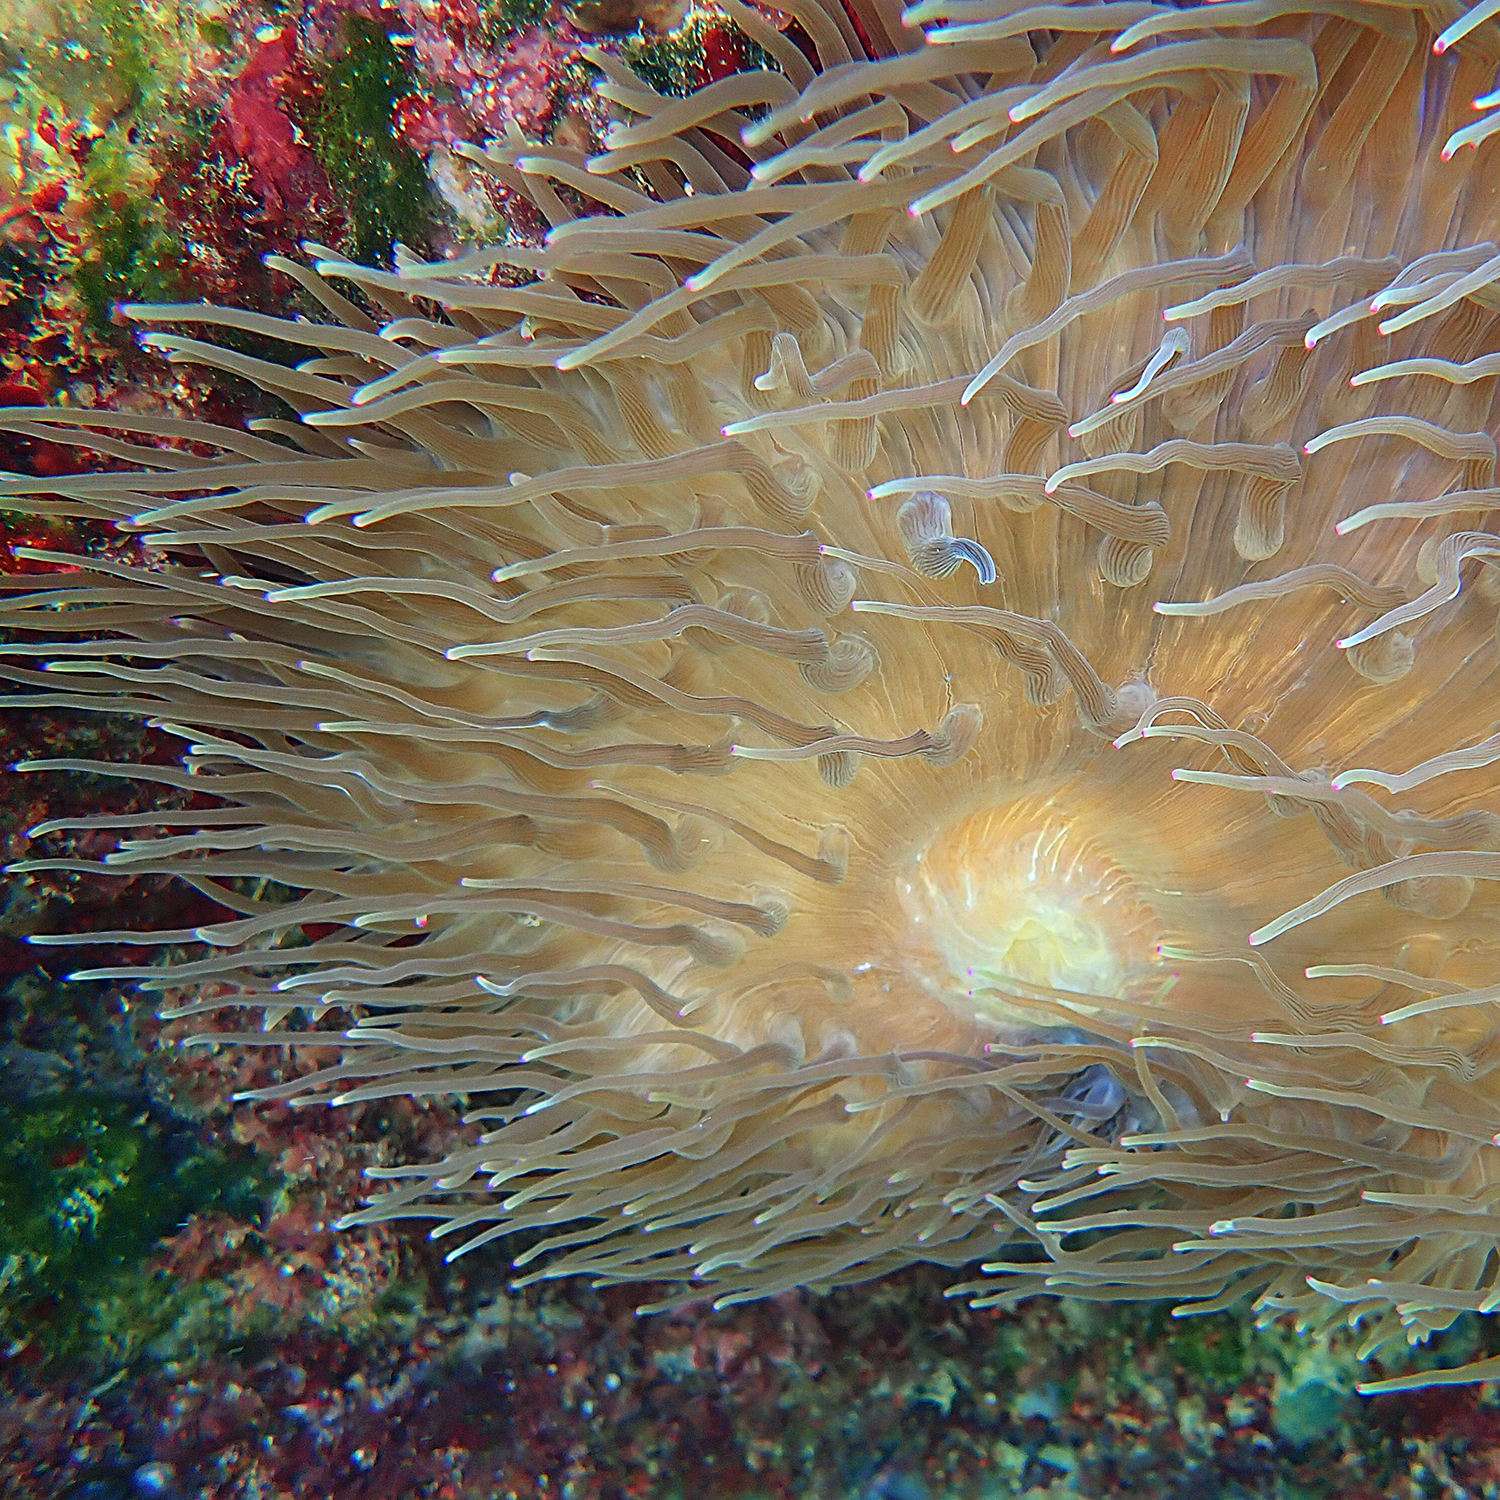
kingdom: Animalia
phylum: Cnidaria
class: Anthozoa
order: Actiniaria
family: Actiniidae
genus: Entacmaea
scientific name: Entacmaea quadricolor
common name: Bulb tentacle sea anemone
